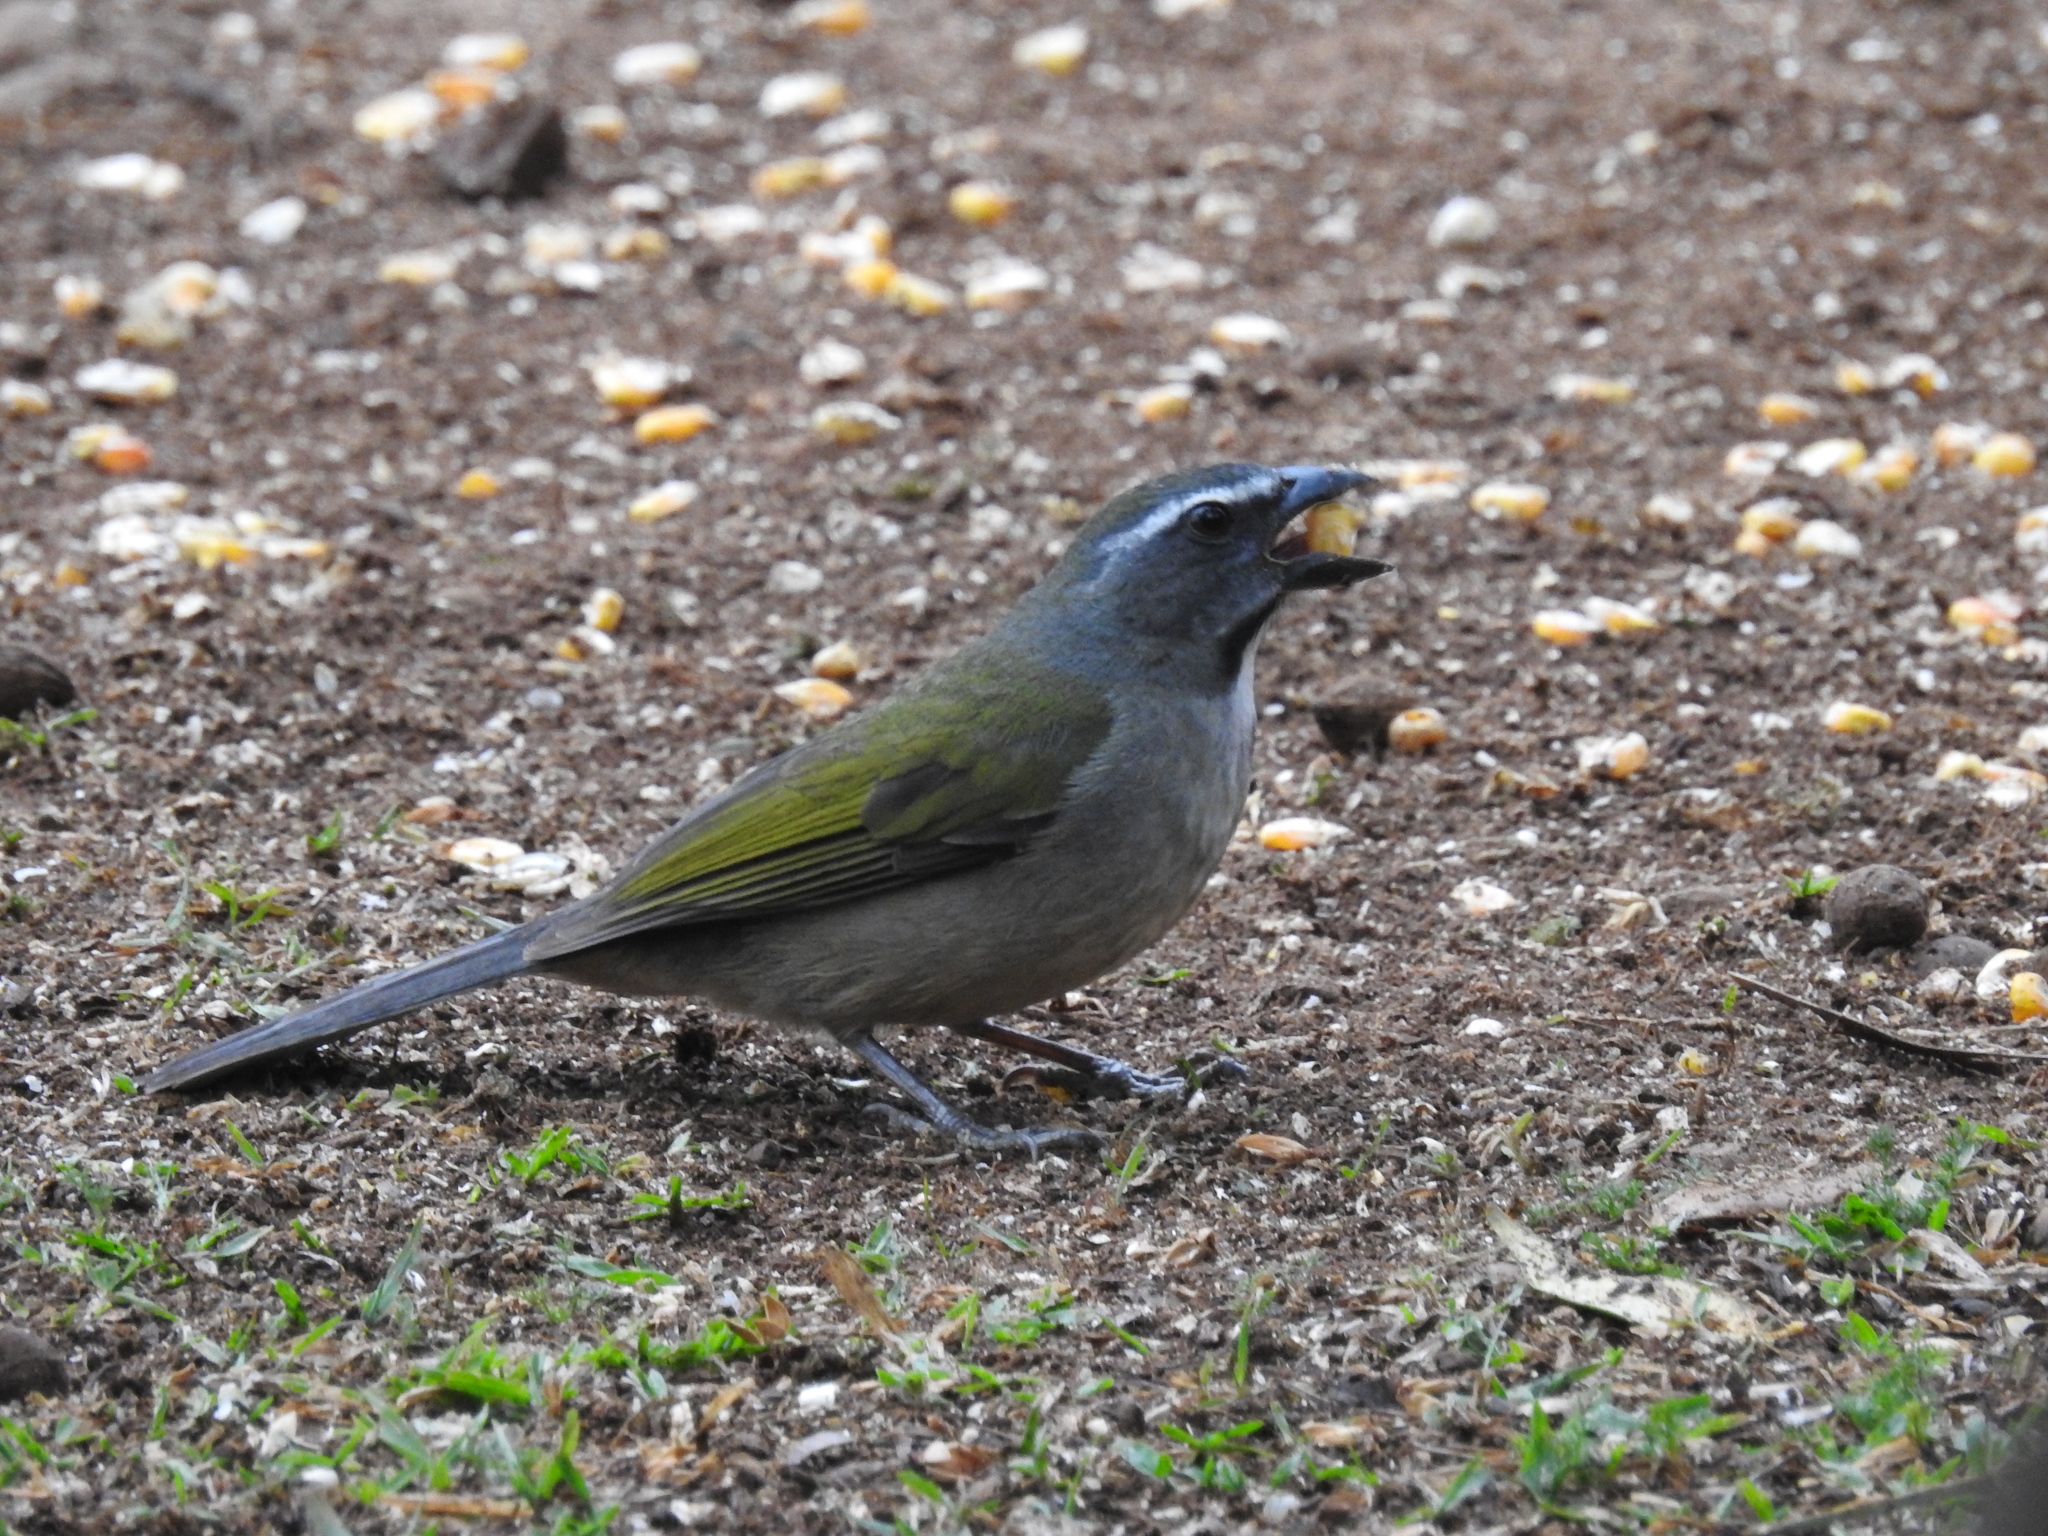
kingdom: Animalia
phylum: Chordata
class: Aves
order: Passeriformes
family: Thraupidae
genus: Saltator
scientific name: Saltator similis
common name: Green-winged saltator
